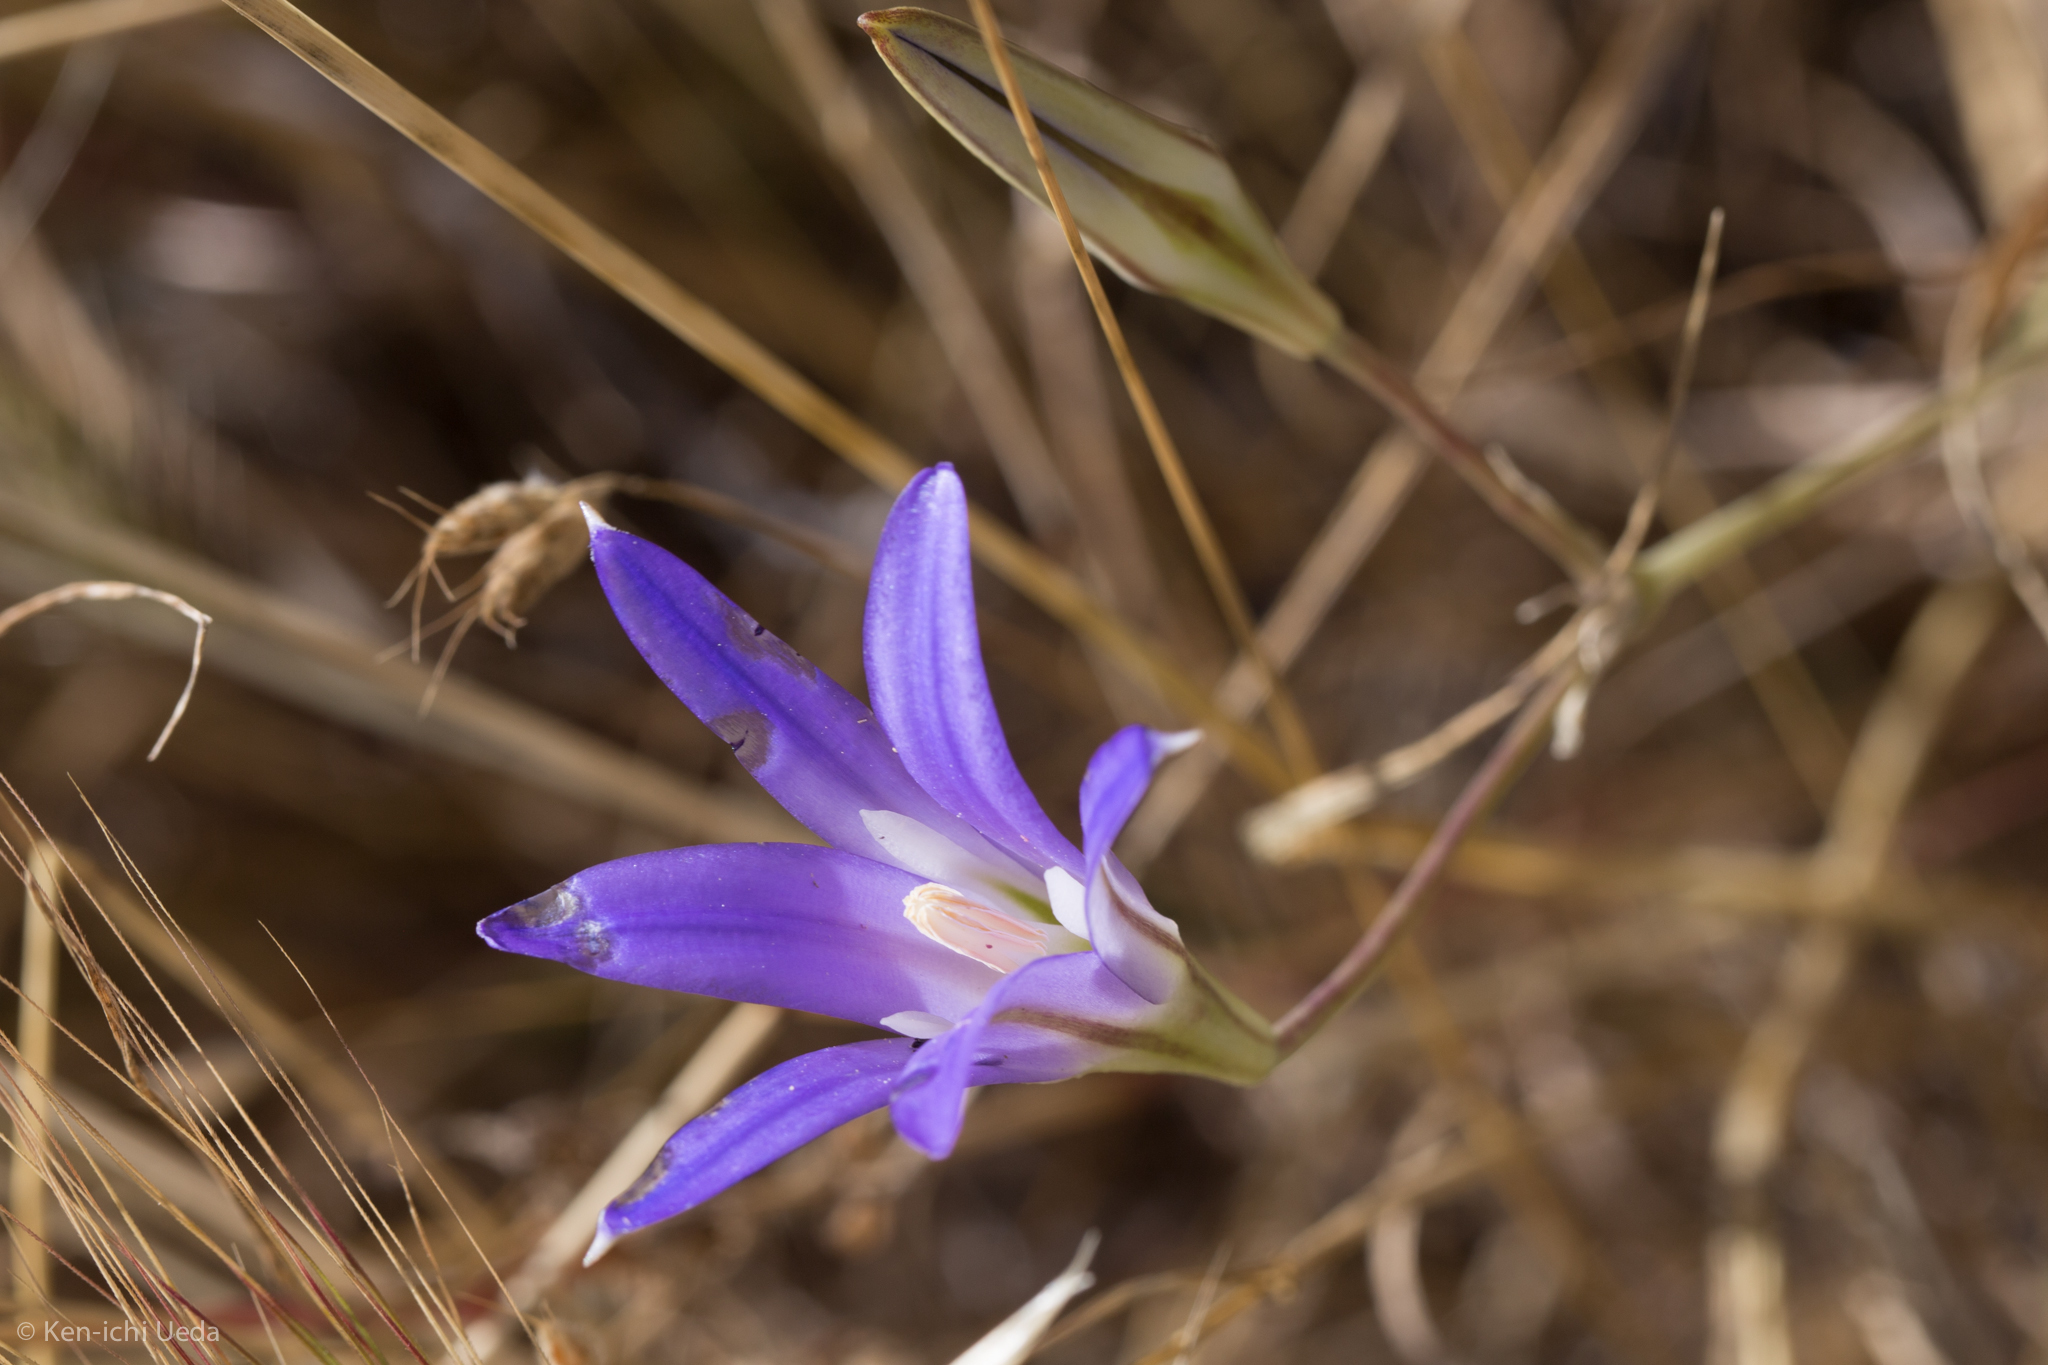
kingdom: Plantae
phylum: Tracheophyta
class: Liliopsida
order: Asparagales
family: Asparagaceae
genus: Brodiaea
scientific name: Brodiaea elegans
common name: Elegant cluster-lily
